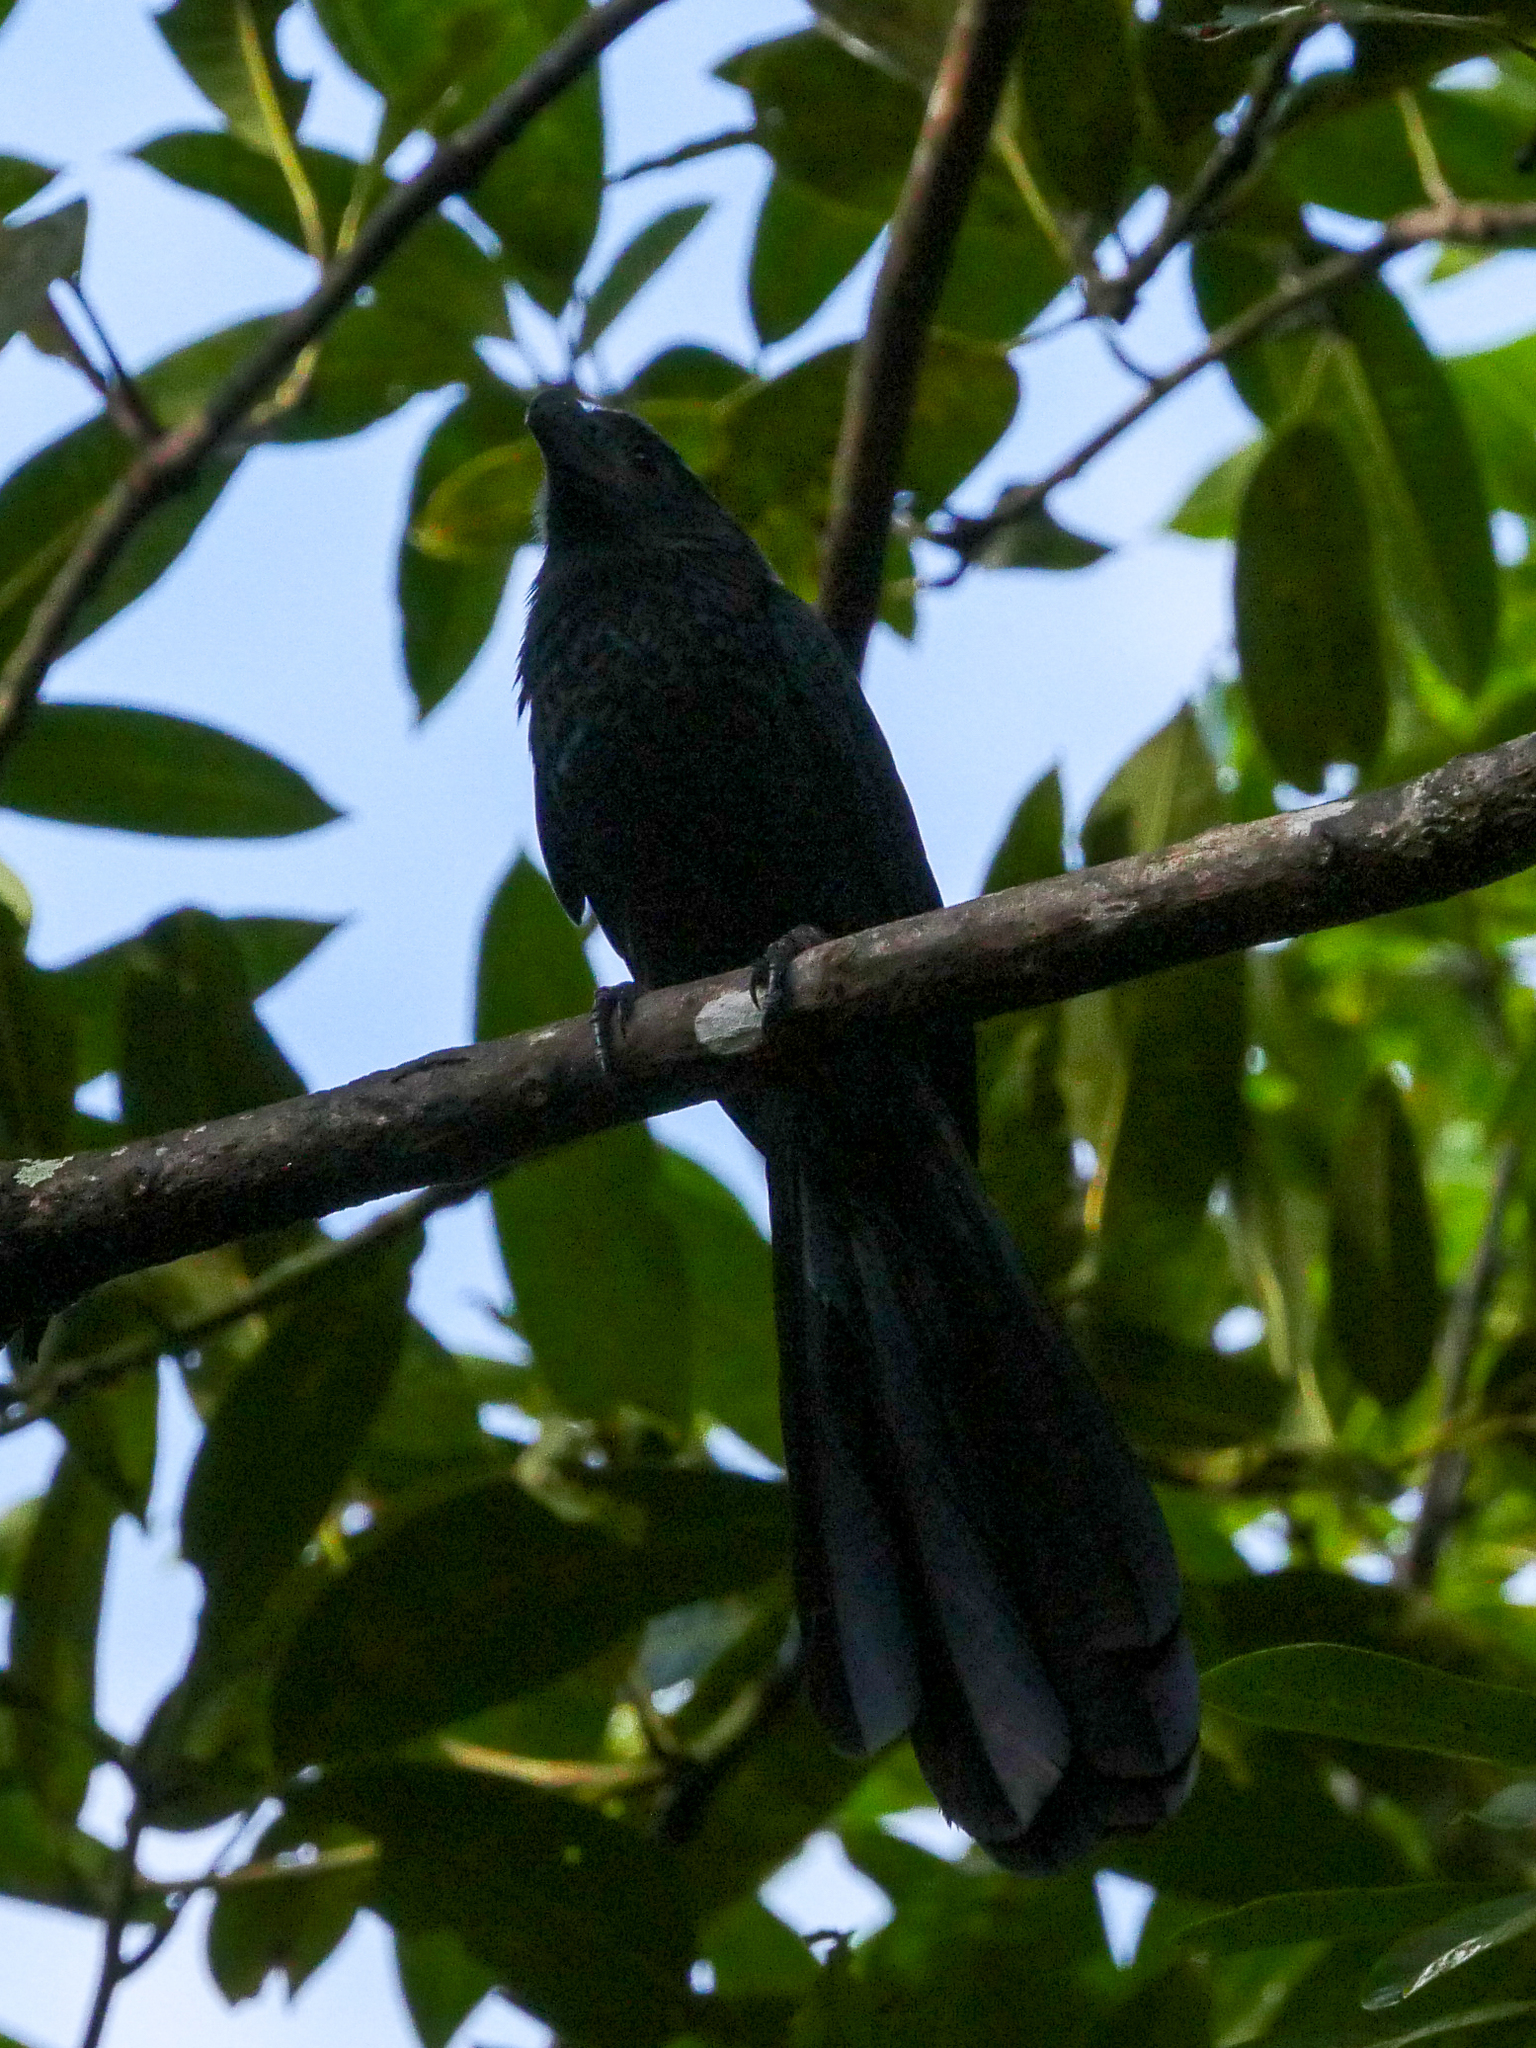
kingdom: Animalia
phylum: Chordata
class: Aves
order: Cuculiformes
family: Cuculidae
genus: Crotophaga
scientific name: Crotophaga sulcirostris
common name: Groove-billed ani
